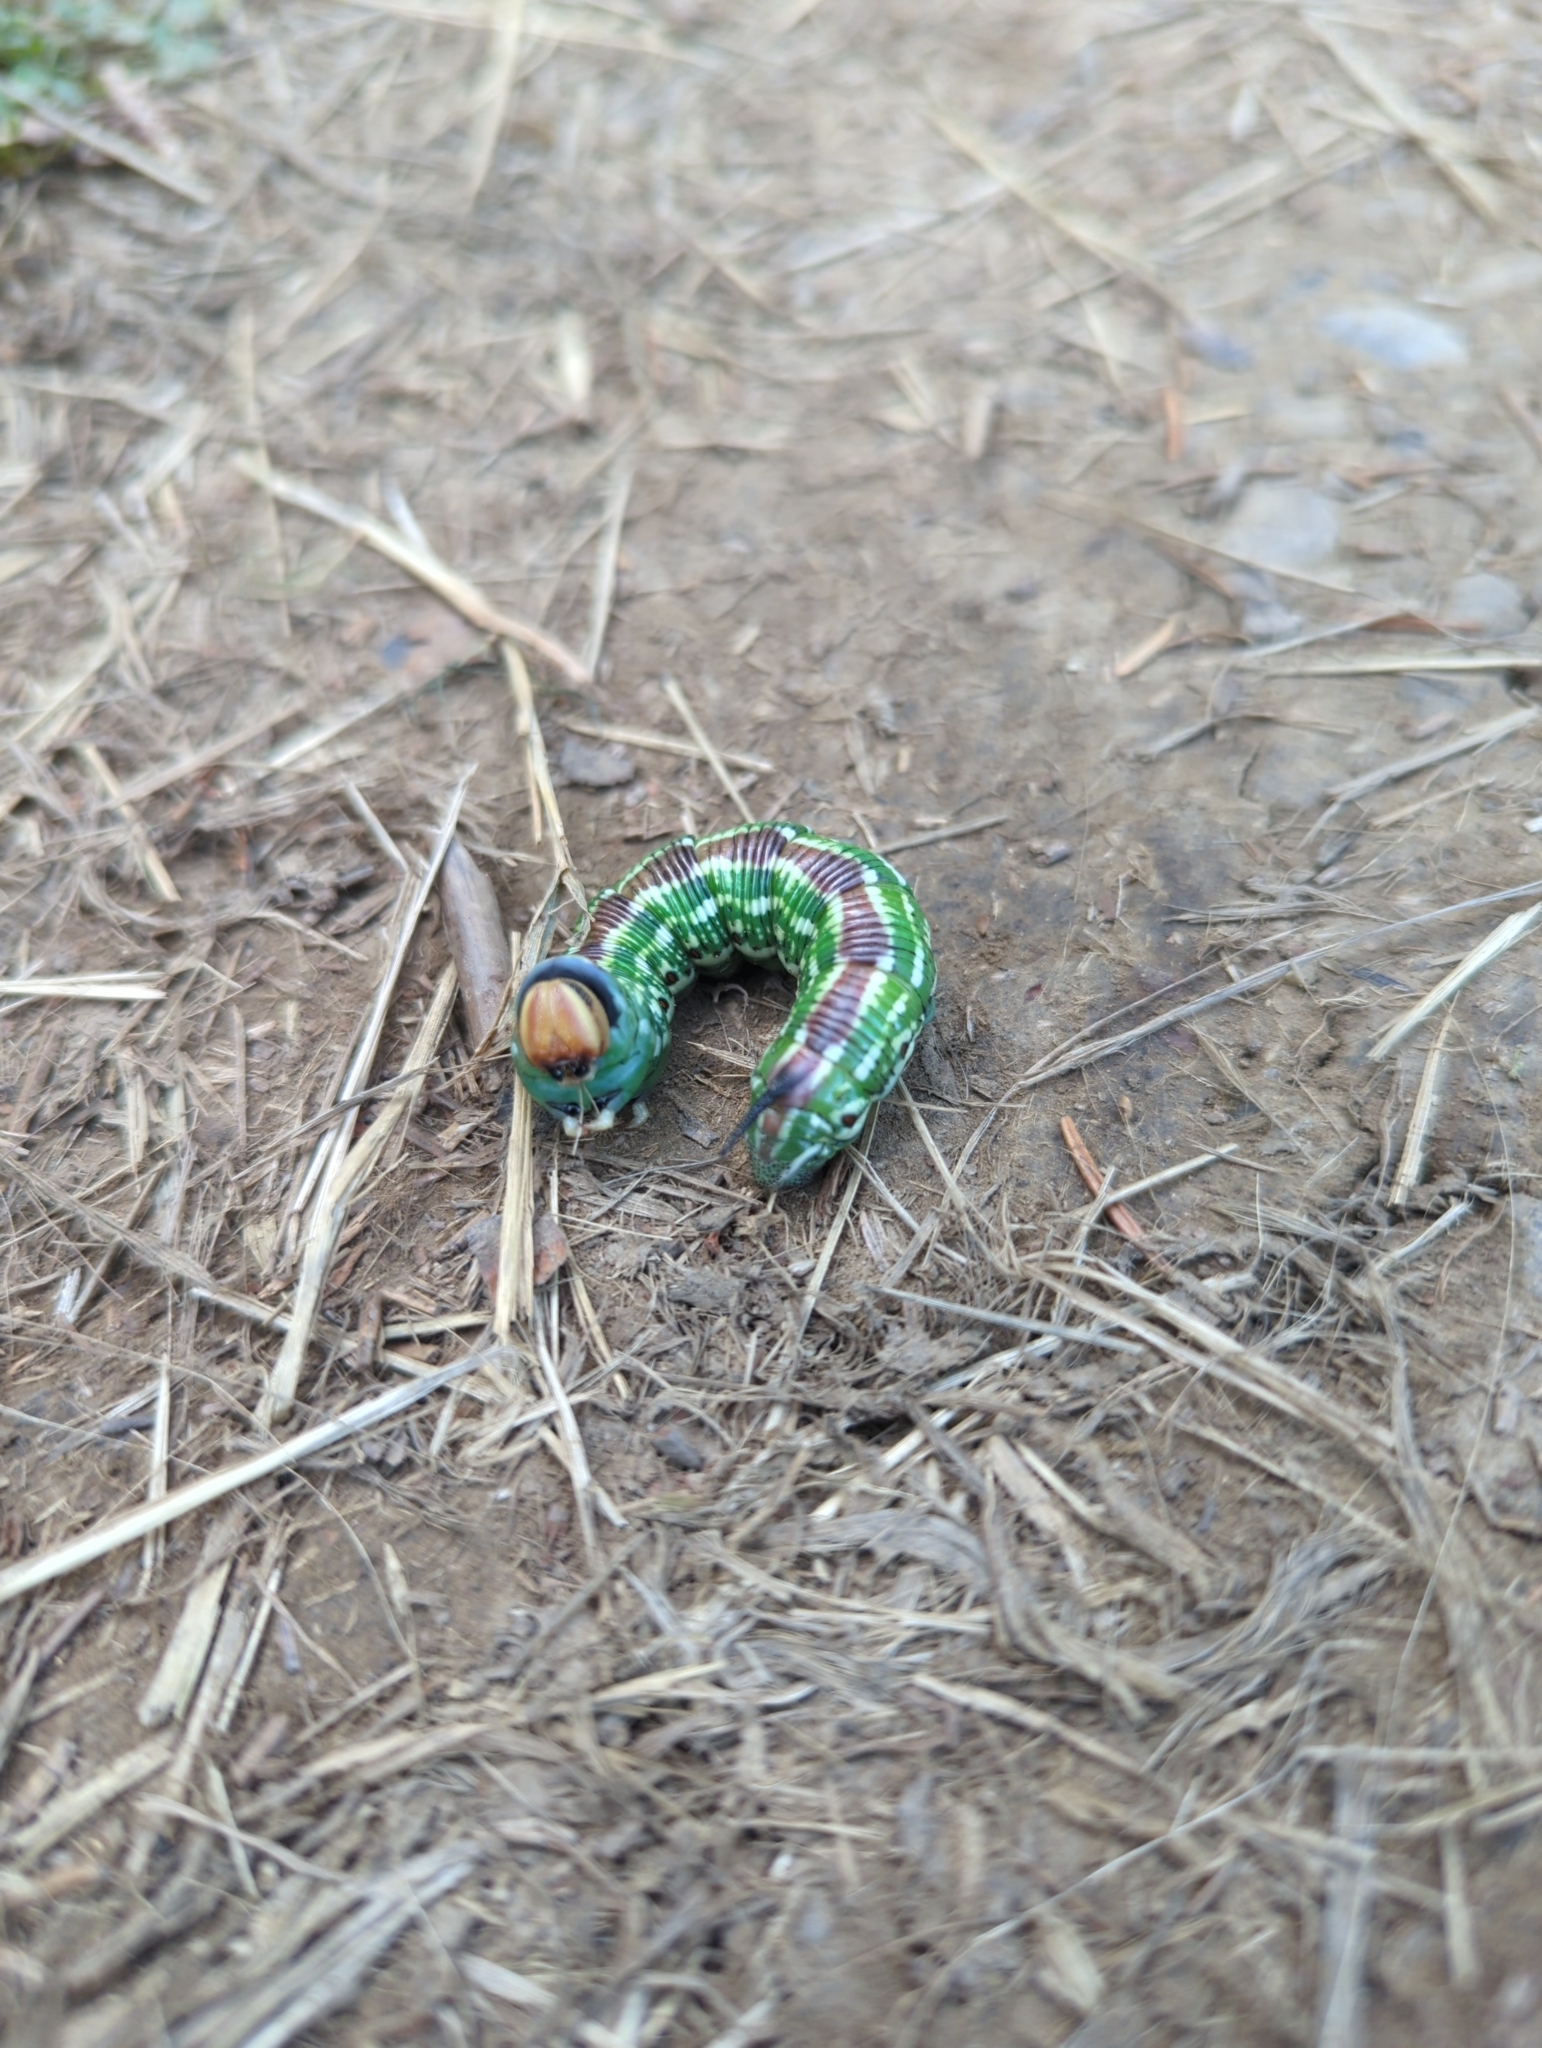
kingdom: Animalia
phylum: Arthropoda
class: Insecta
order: Lepidoptera
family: Sphingidae
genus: Sphinx
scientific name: Sphinx pinastri
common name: Pine hawk-moth
